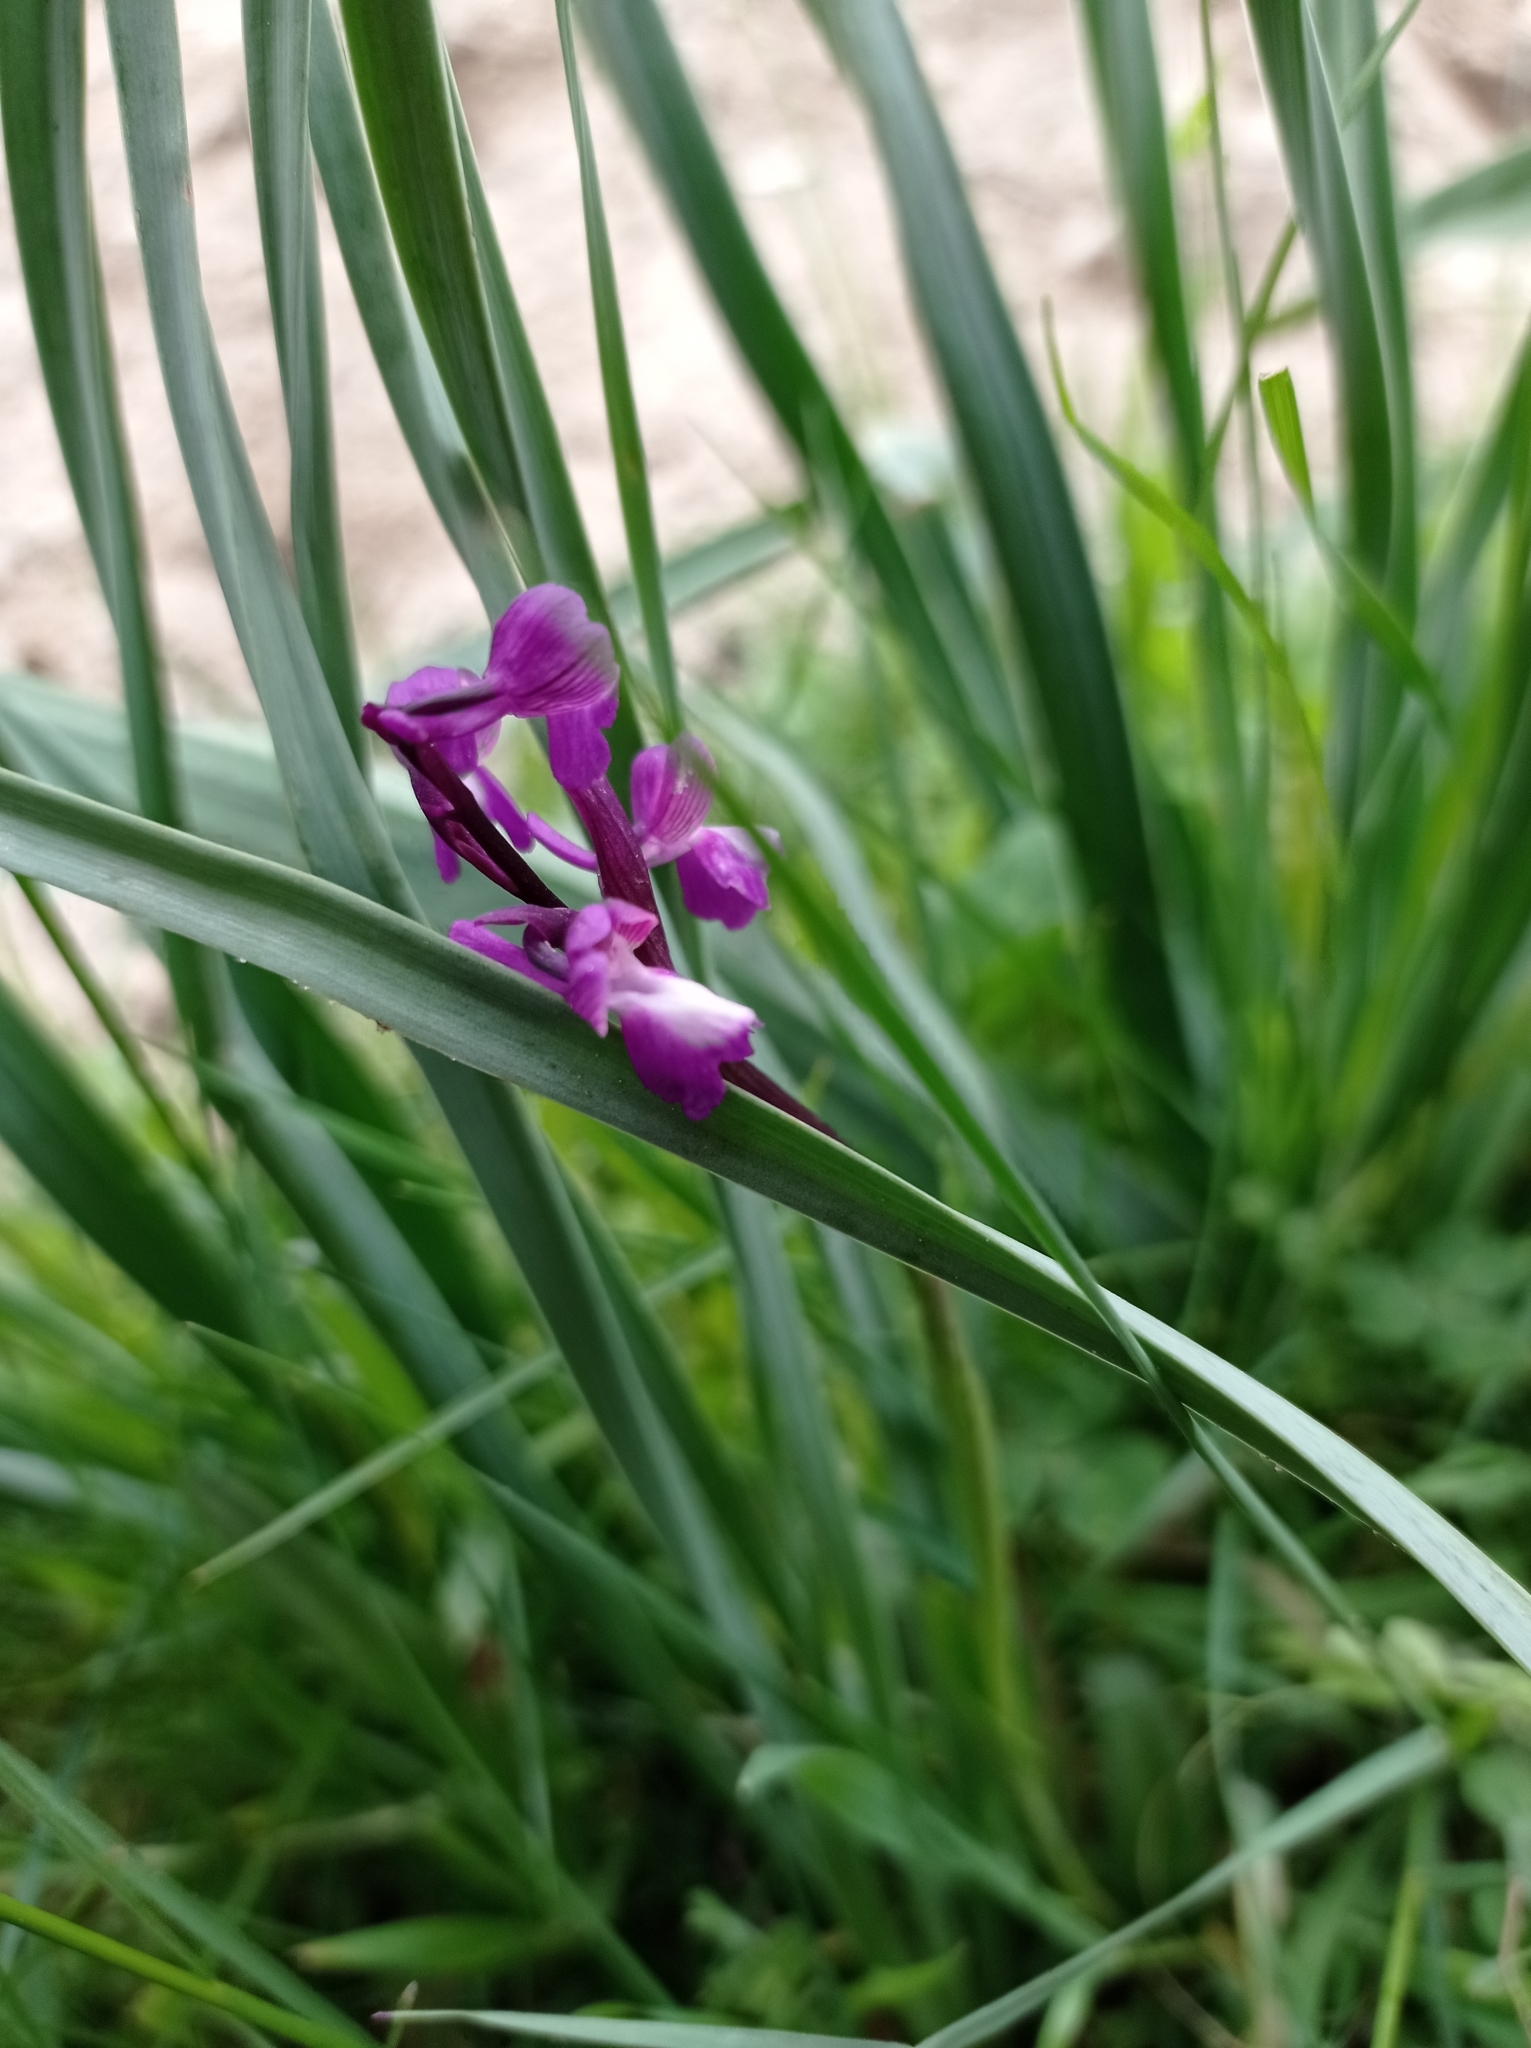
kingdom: Plantae
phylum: Tracheophyta
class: Liliopsida
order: Asparagales
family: Orchidaceae
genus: Anacamptis
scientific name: Anacamptis morio
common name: Green-winged orchid
